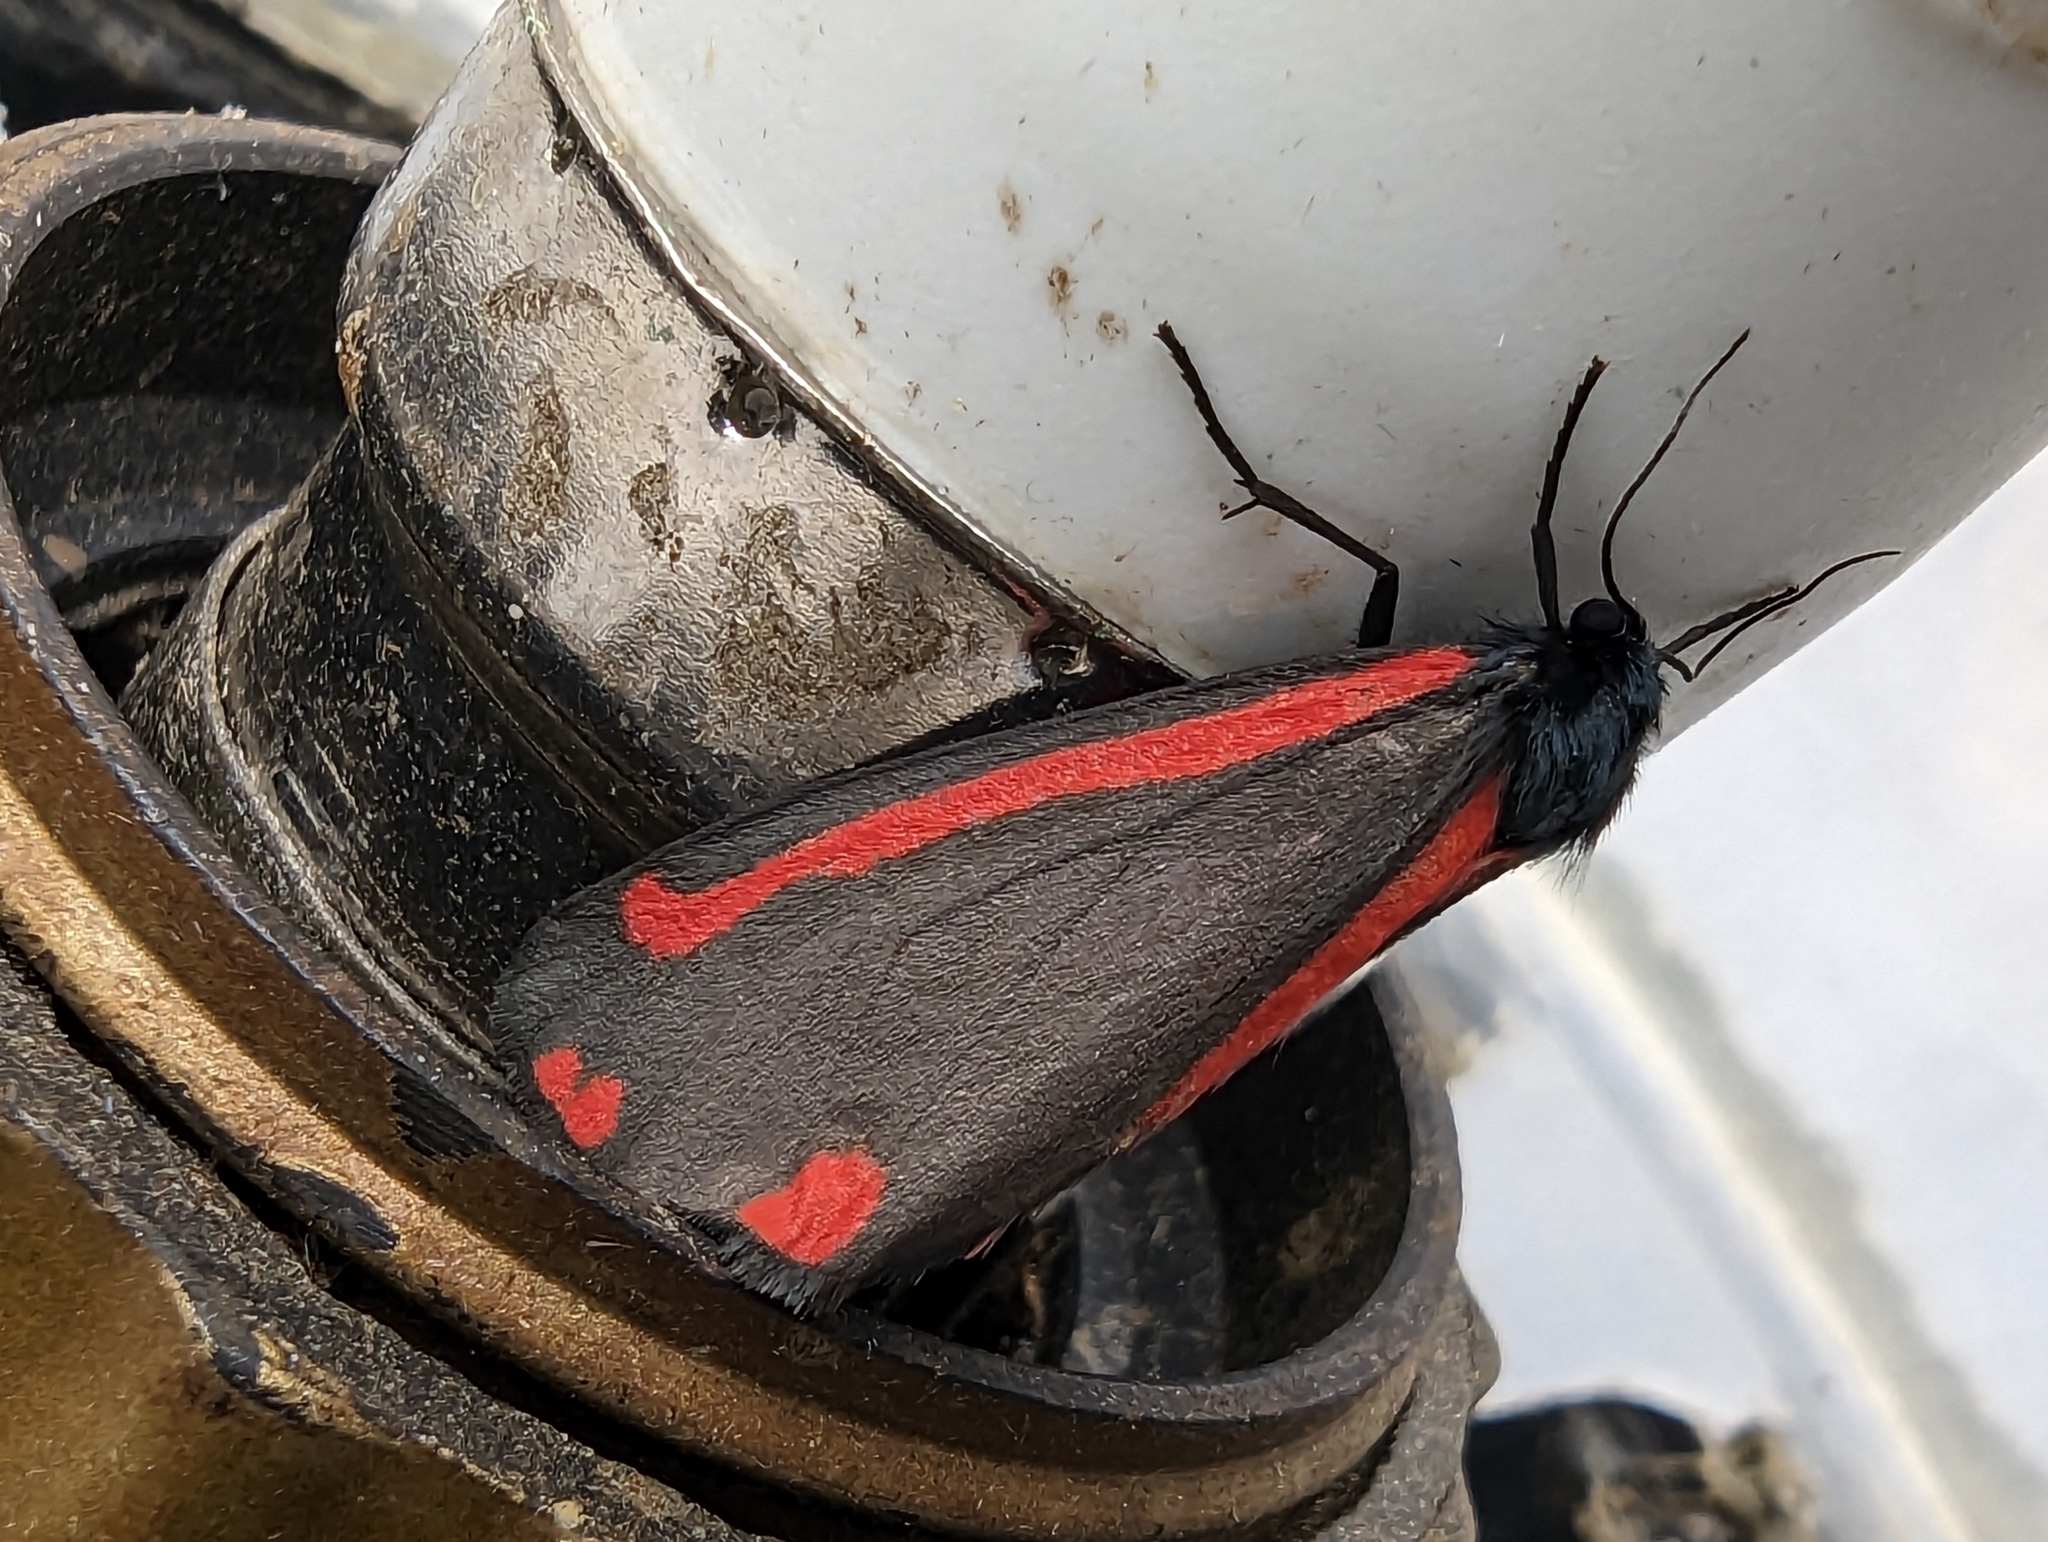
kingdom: Animalia
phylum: Arthropoda
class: Insecta
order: Lepidoptera
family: Erebidae
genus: Tyria
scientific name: Tyria jacobaeae
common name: Cinnabar
